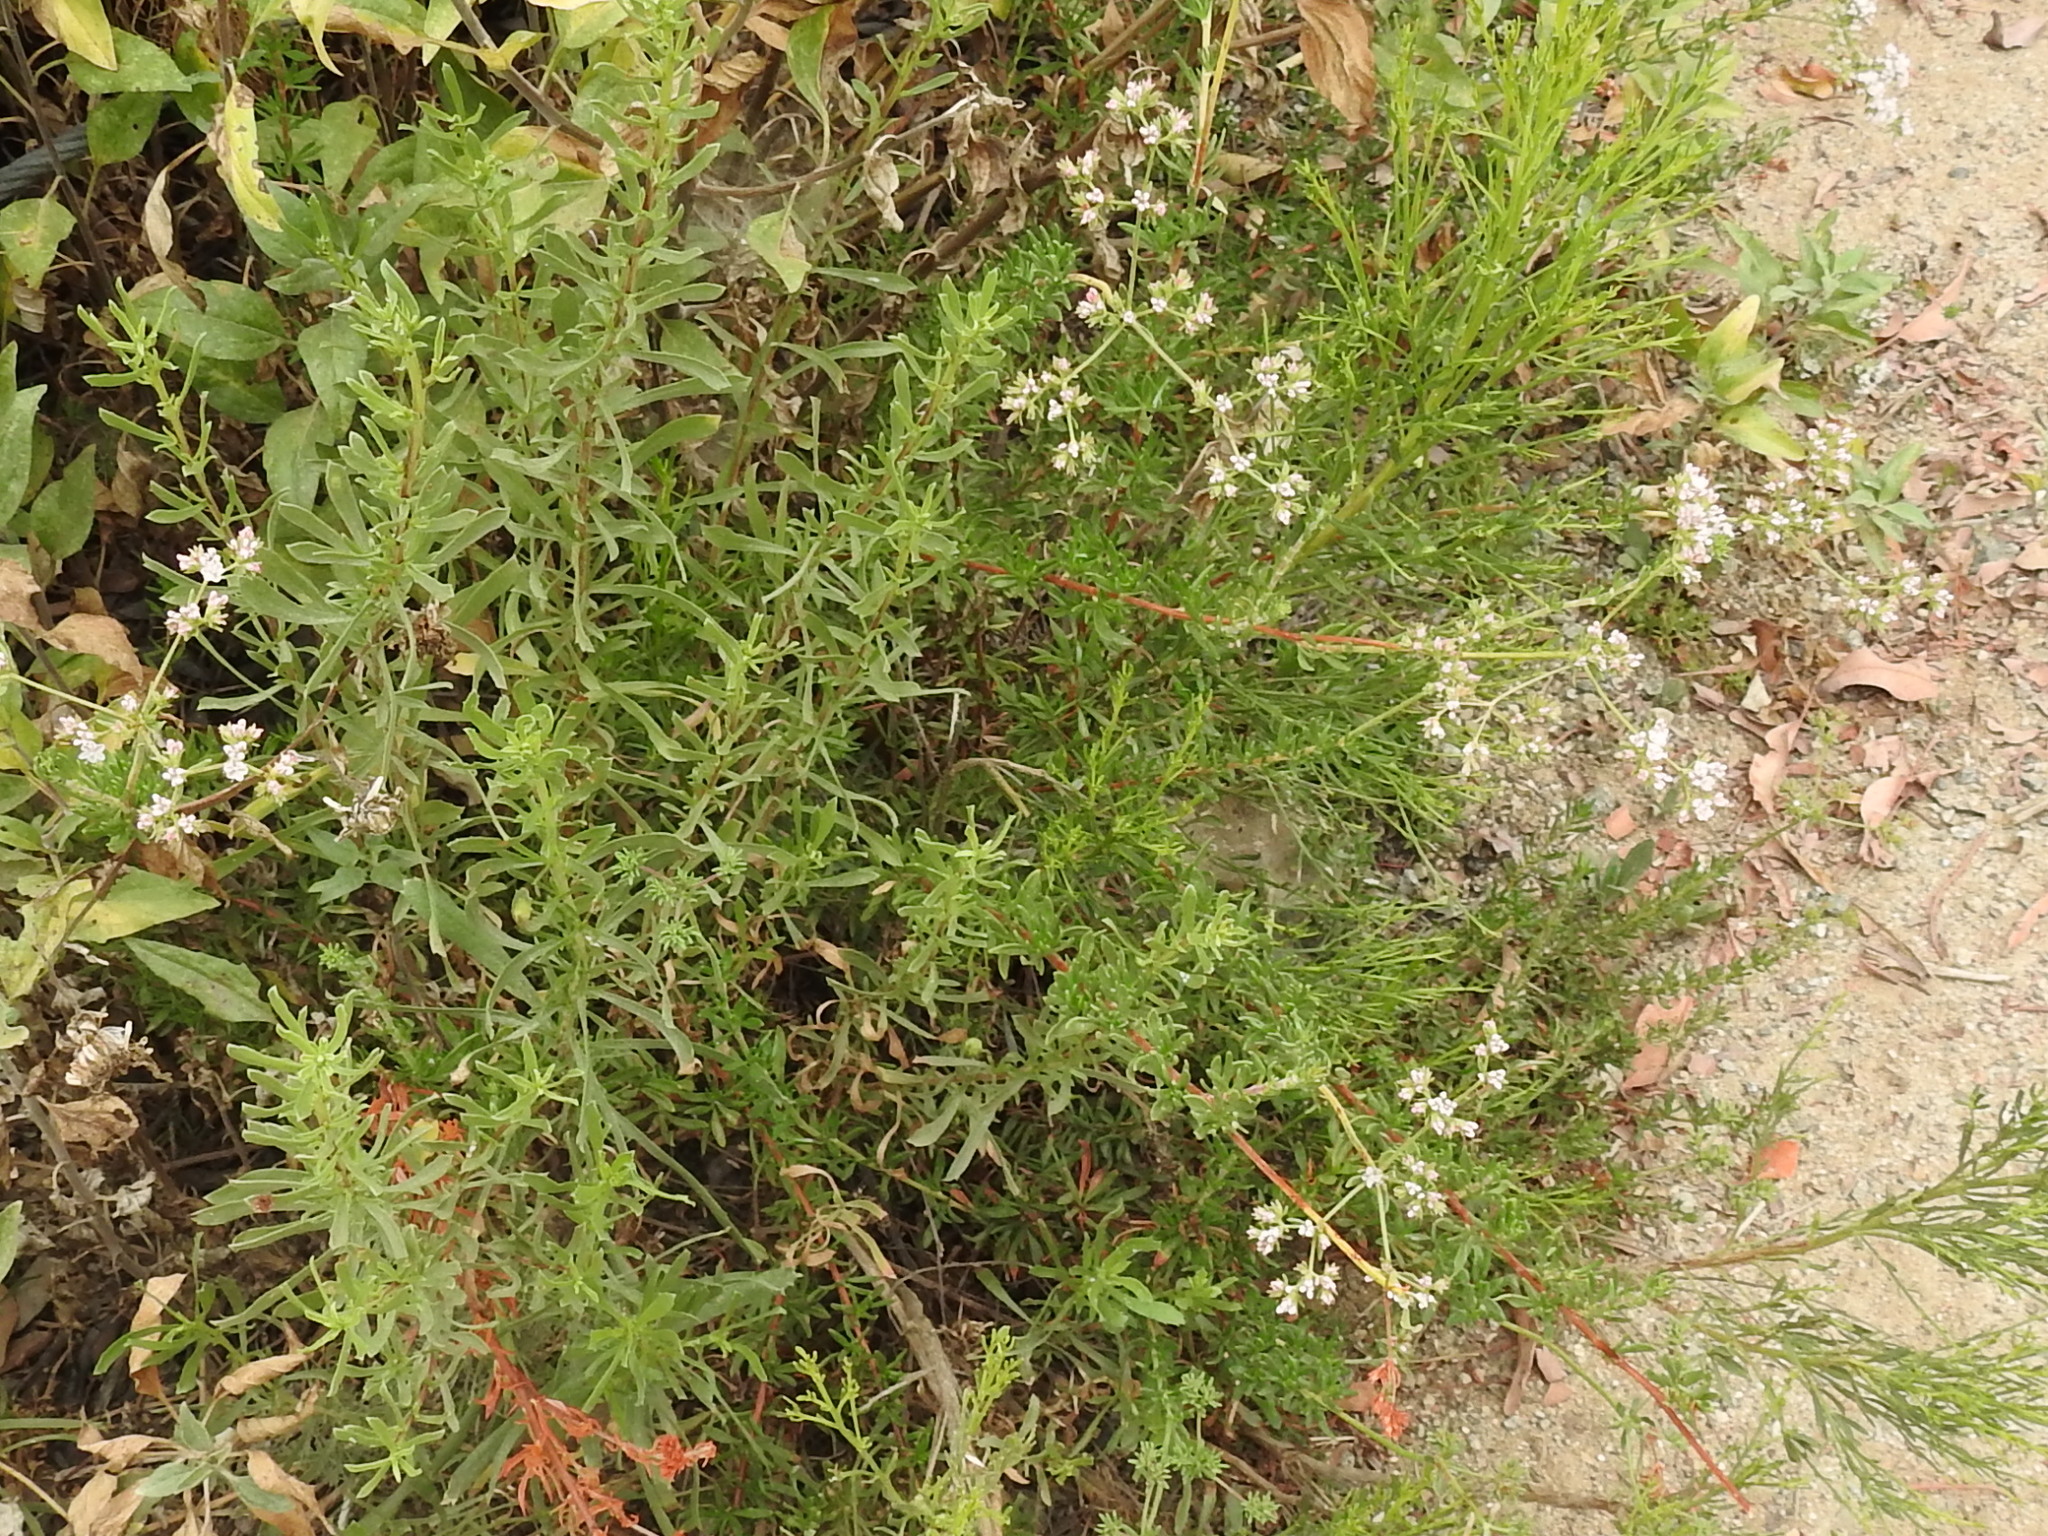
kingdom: Plantae
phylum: Tracheophyta
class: Magnoliopsida
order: Caryophyllales
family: Polygonaceae
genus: Eriogonum
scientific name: Eriogonum fasciculatum
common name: California wild buckwheat
